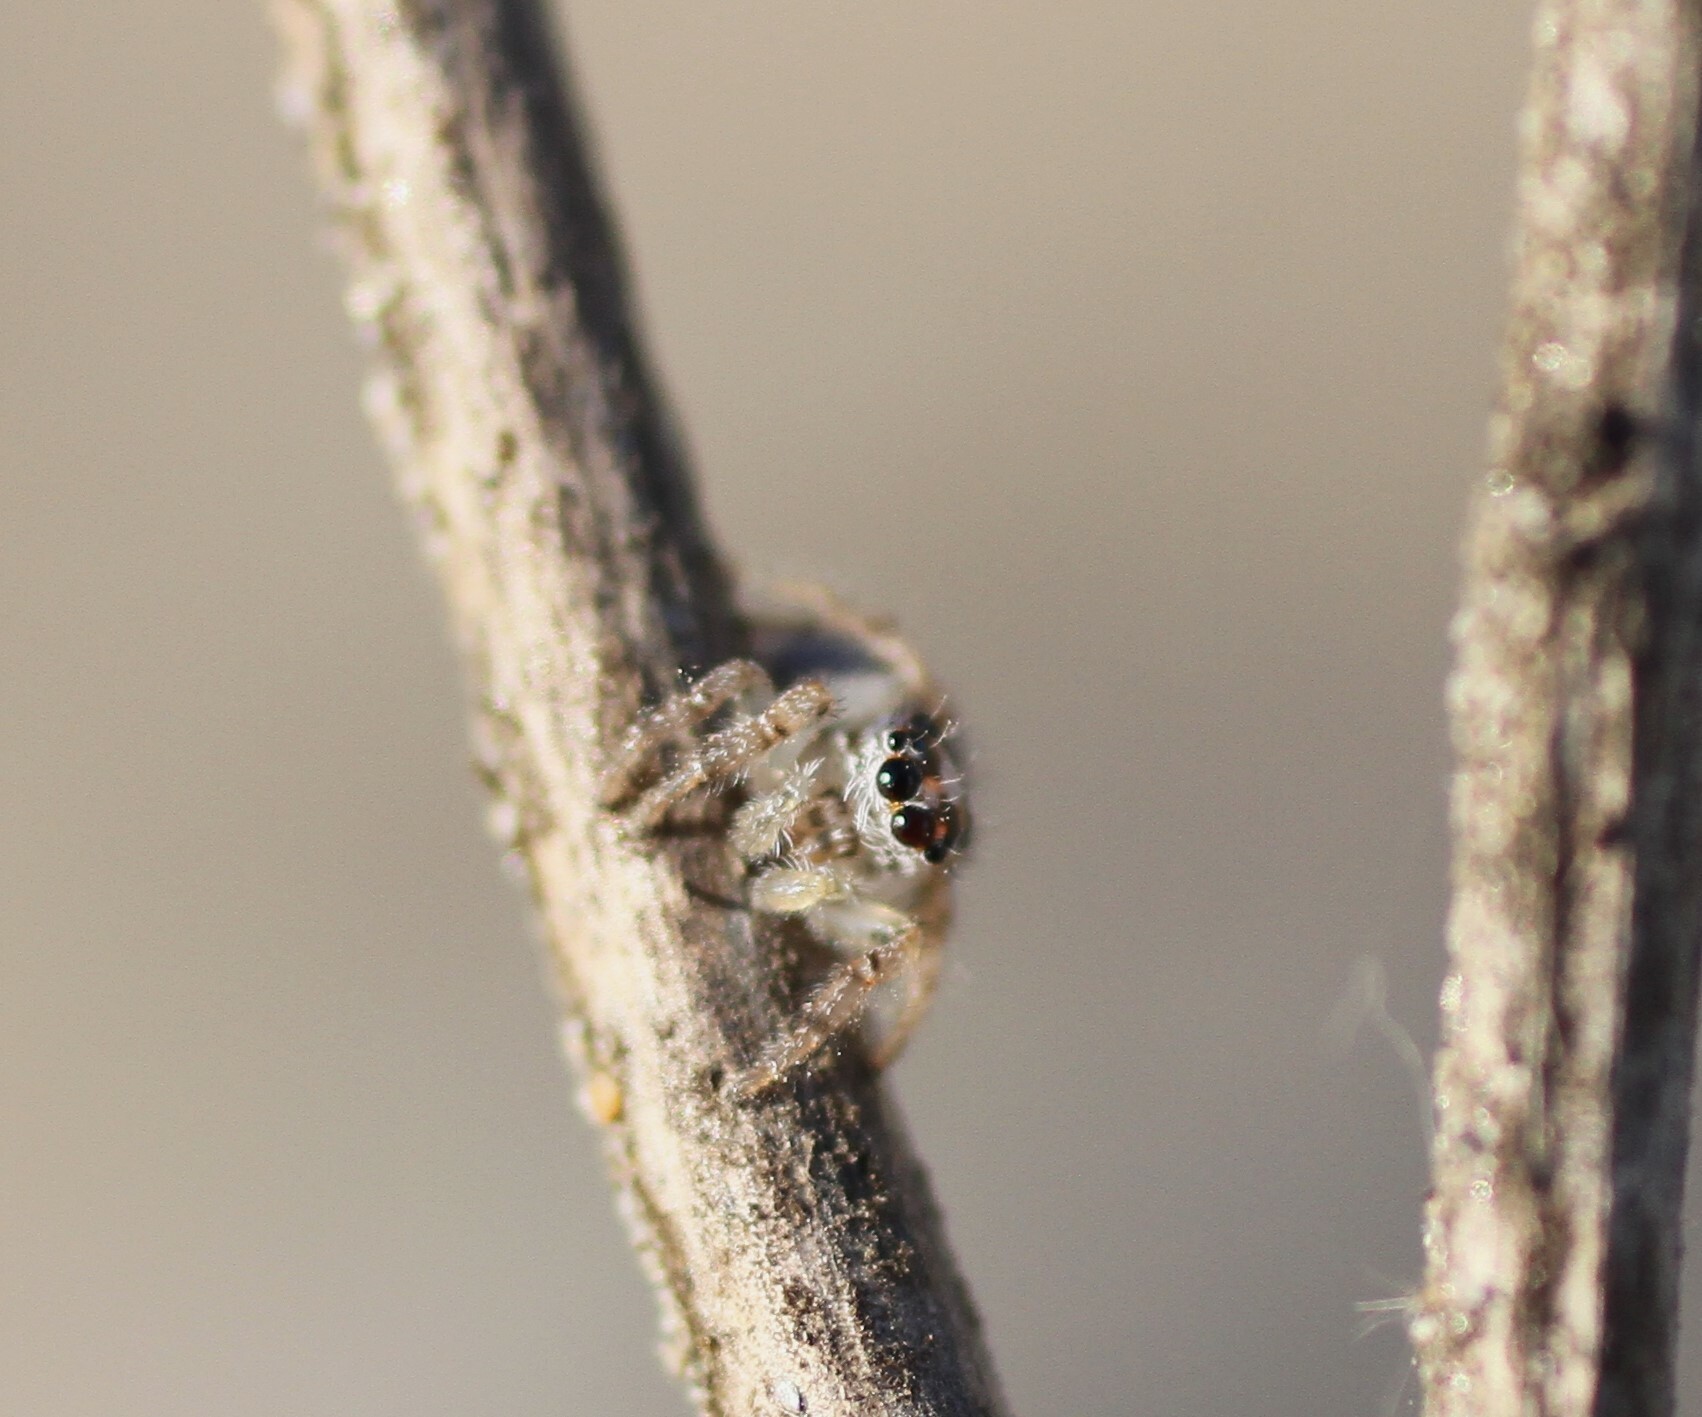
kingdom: Animalia
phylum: Arthropoda
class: Arachnida
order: Araneae
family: Salticidae
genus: Colonus
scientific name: Colonus hesperus
